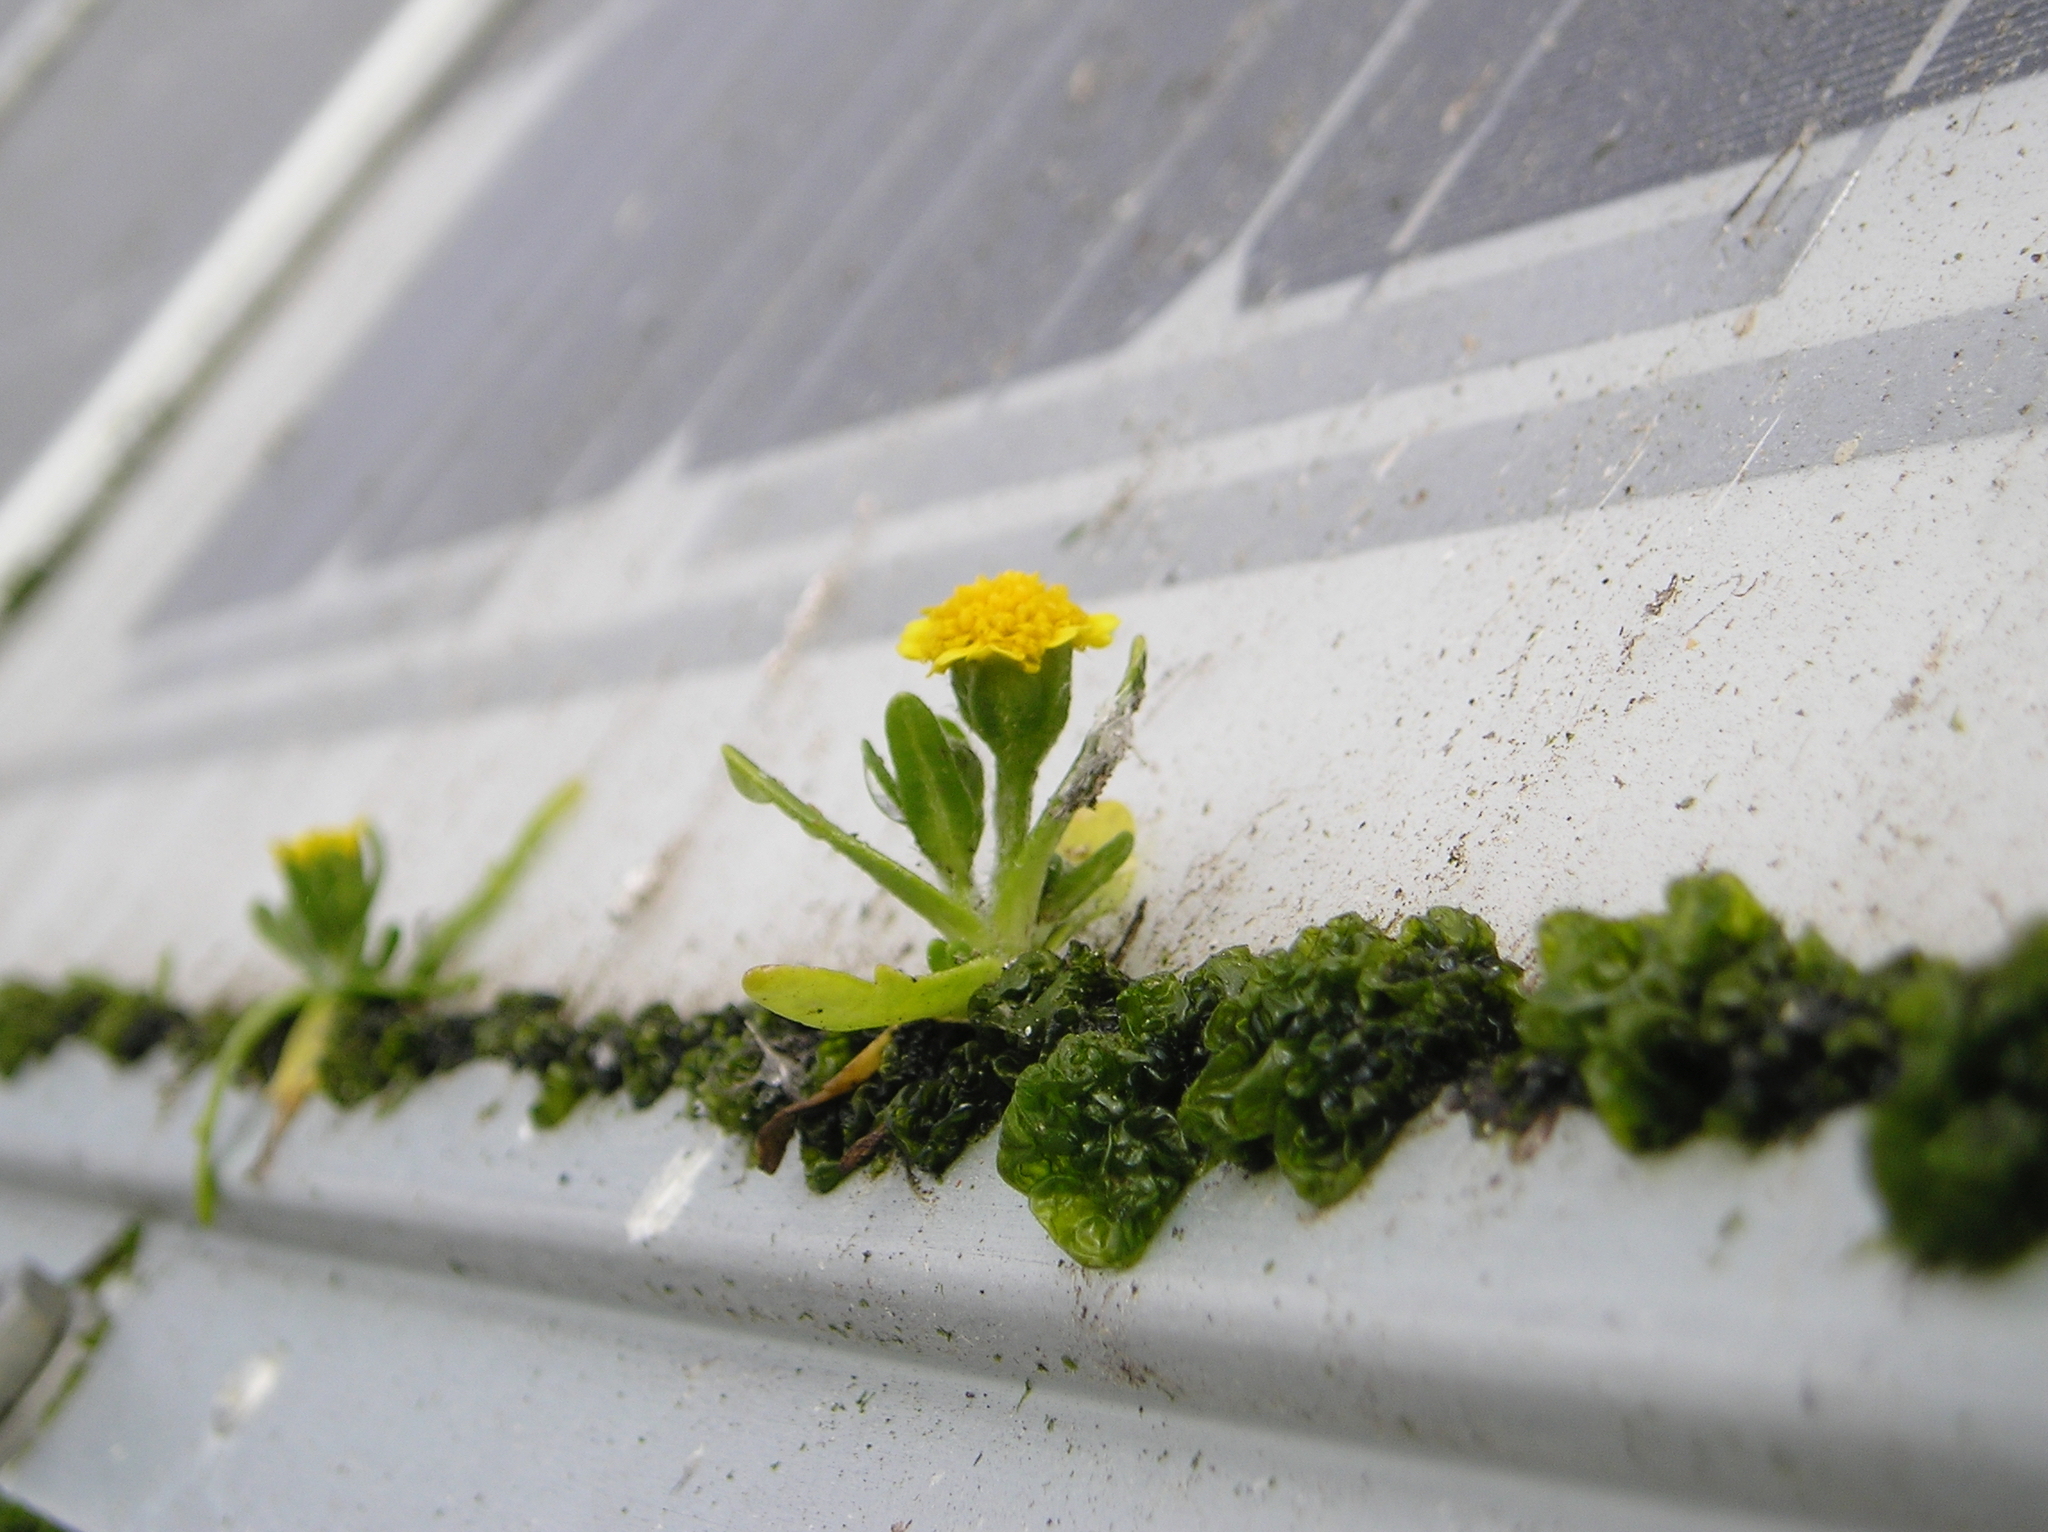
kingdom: Plantae
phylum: Tracheophyta
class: Magnoliopsida
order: Asterales
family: Asteraceae
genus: Lasthenia
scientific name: Lasthenia maritima
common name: Hairy goldfields
